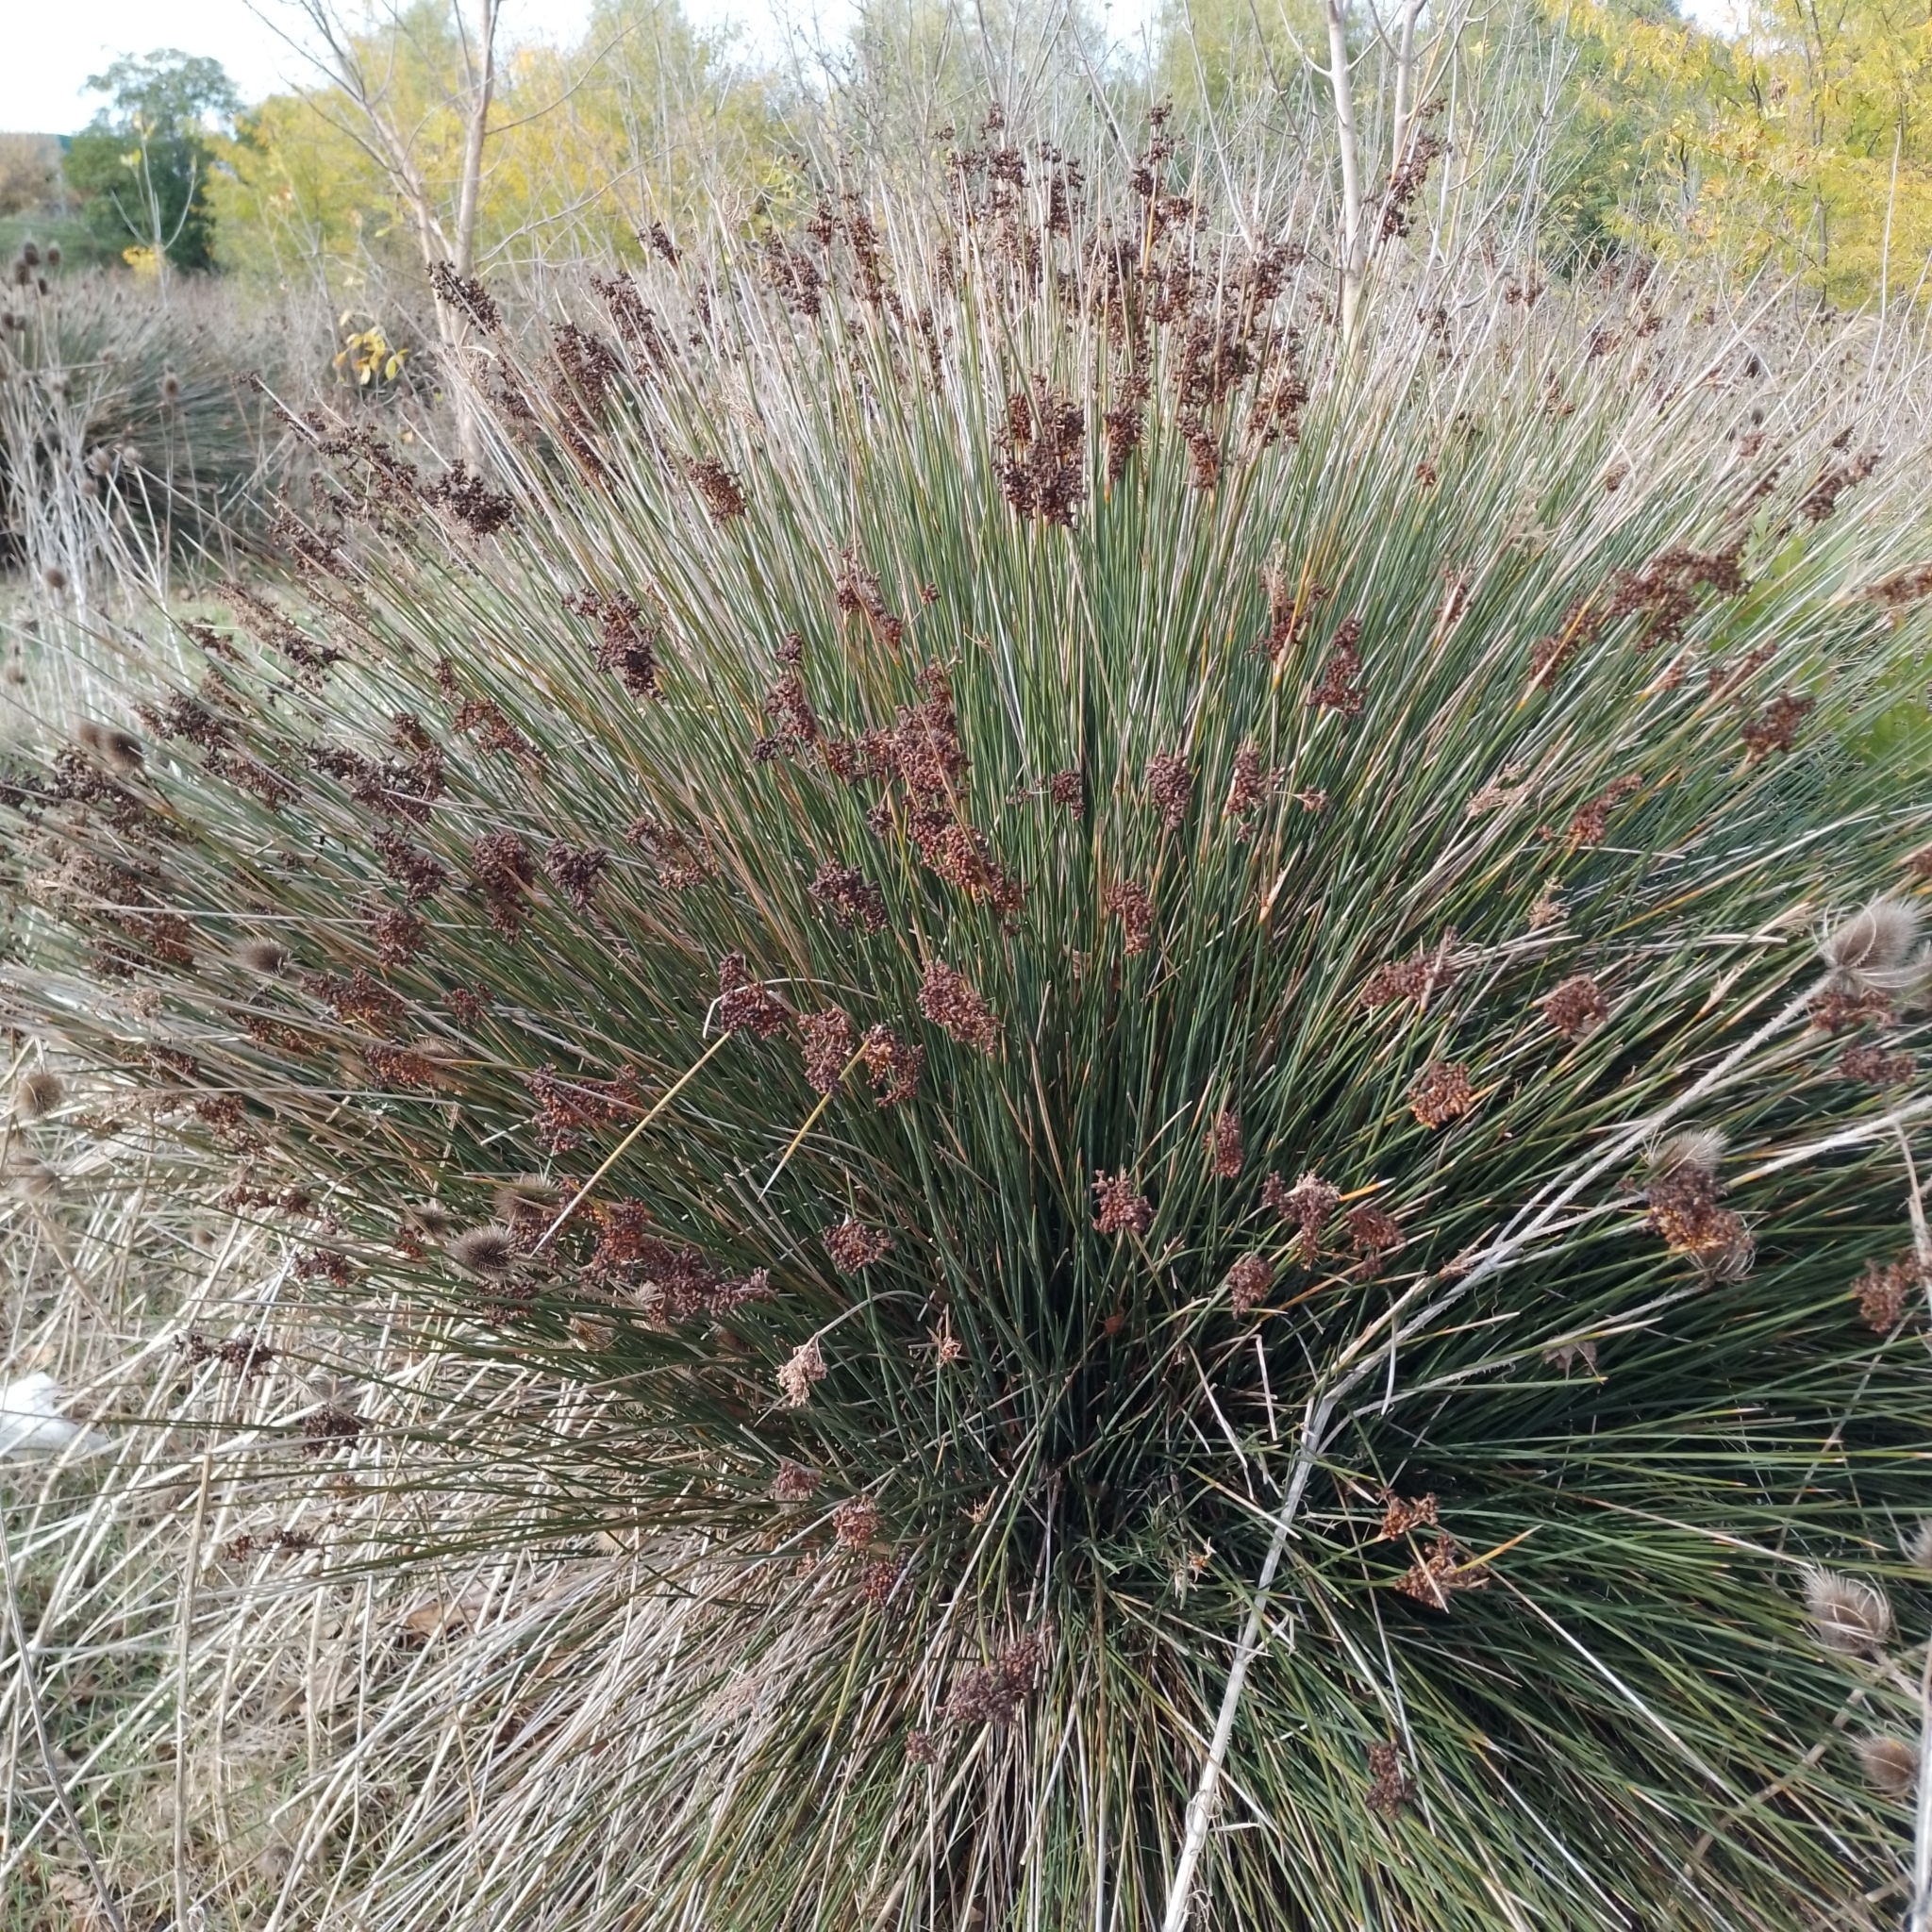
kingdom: Plantae
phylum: Tracheophyta
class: Liliopsida
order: Poales
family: Juncaceae
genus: Juncus
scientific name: Juncus acutus
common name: Sharp rush
